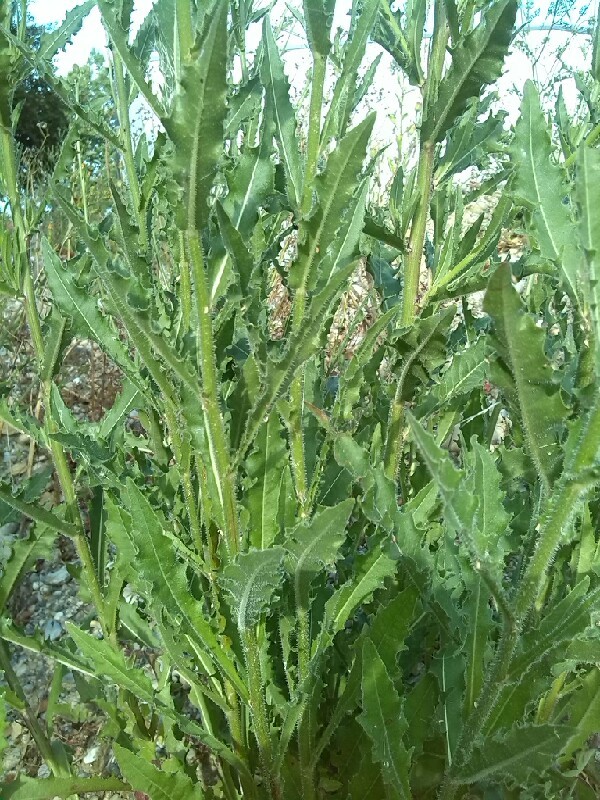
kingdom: Plantae
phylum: Tracheophyta
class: Magnoliopsida
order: Asterales
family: Asteraceae
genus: Picris
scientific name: Picris hieracioides
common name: Hawkweed oxtongue
